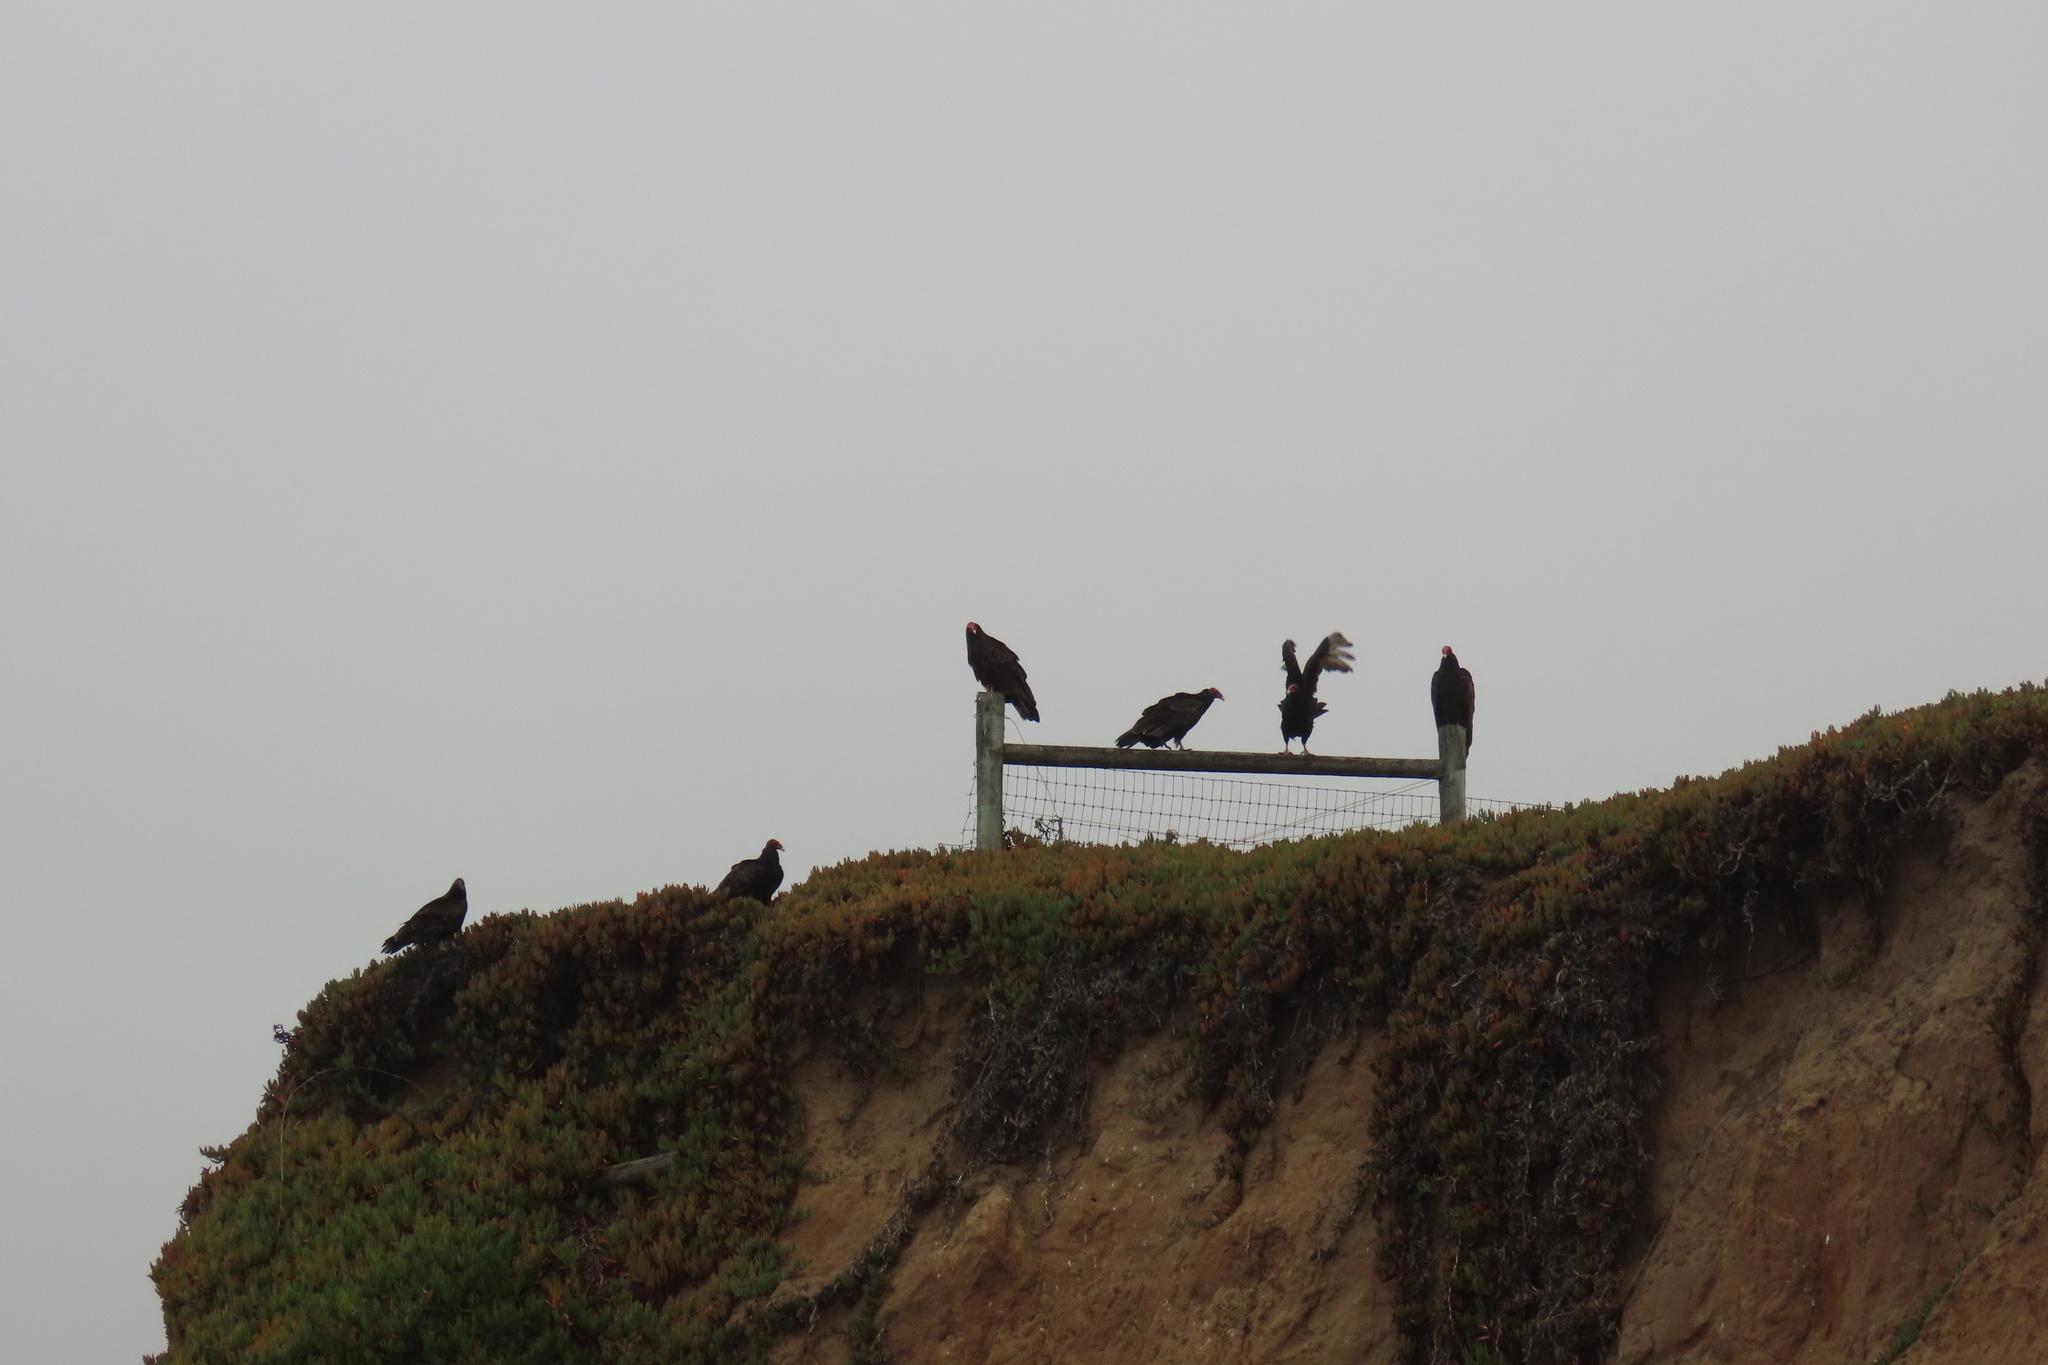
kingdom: Animalia
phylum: Chordata
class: Aves
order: Accipitriformes
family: Cathartidae
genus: Cathartes
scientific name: Cathartes aura
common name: Turkey vulture
